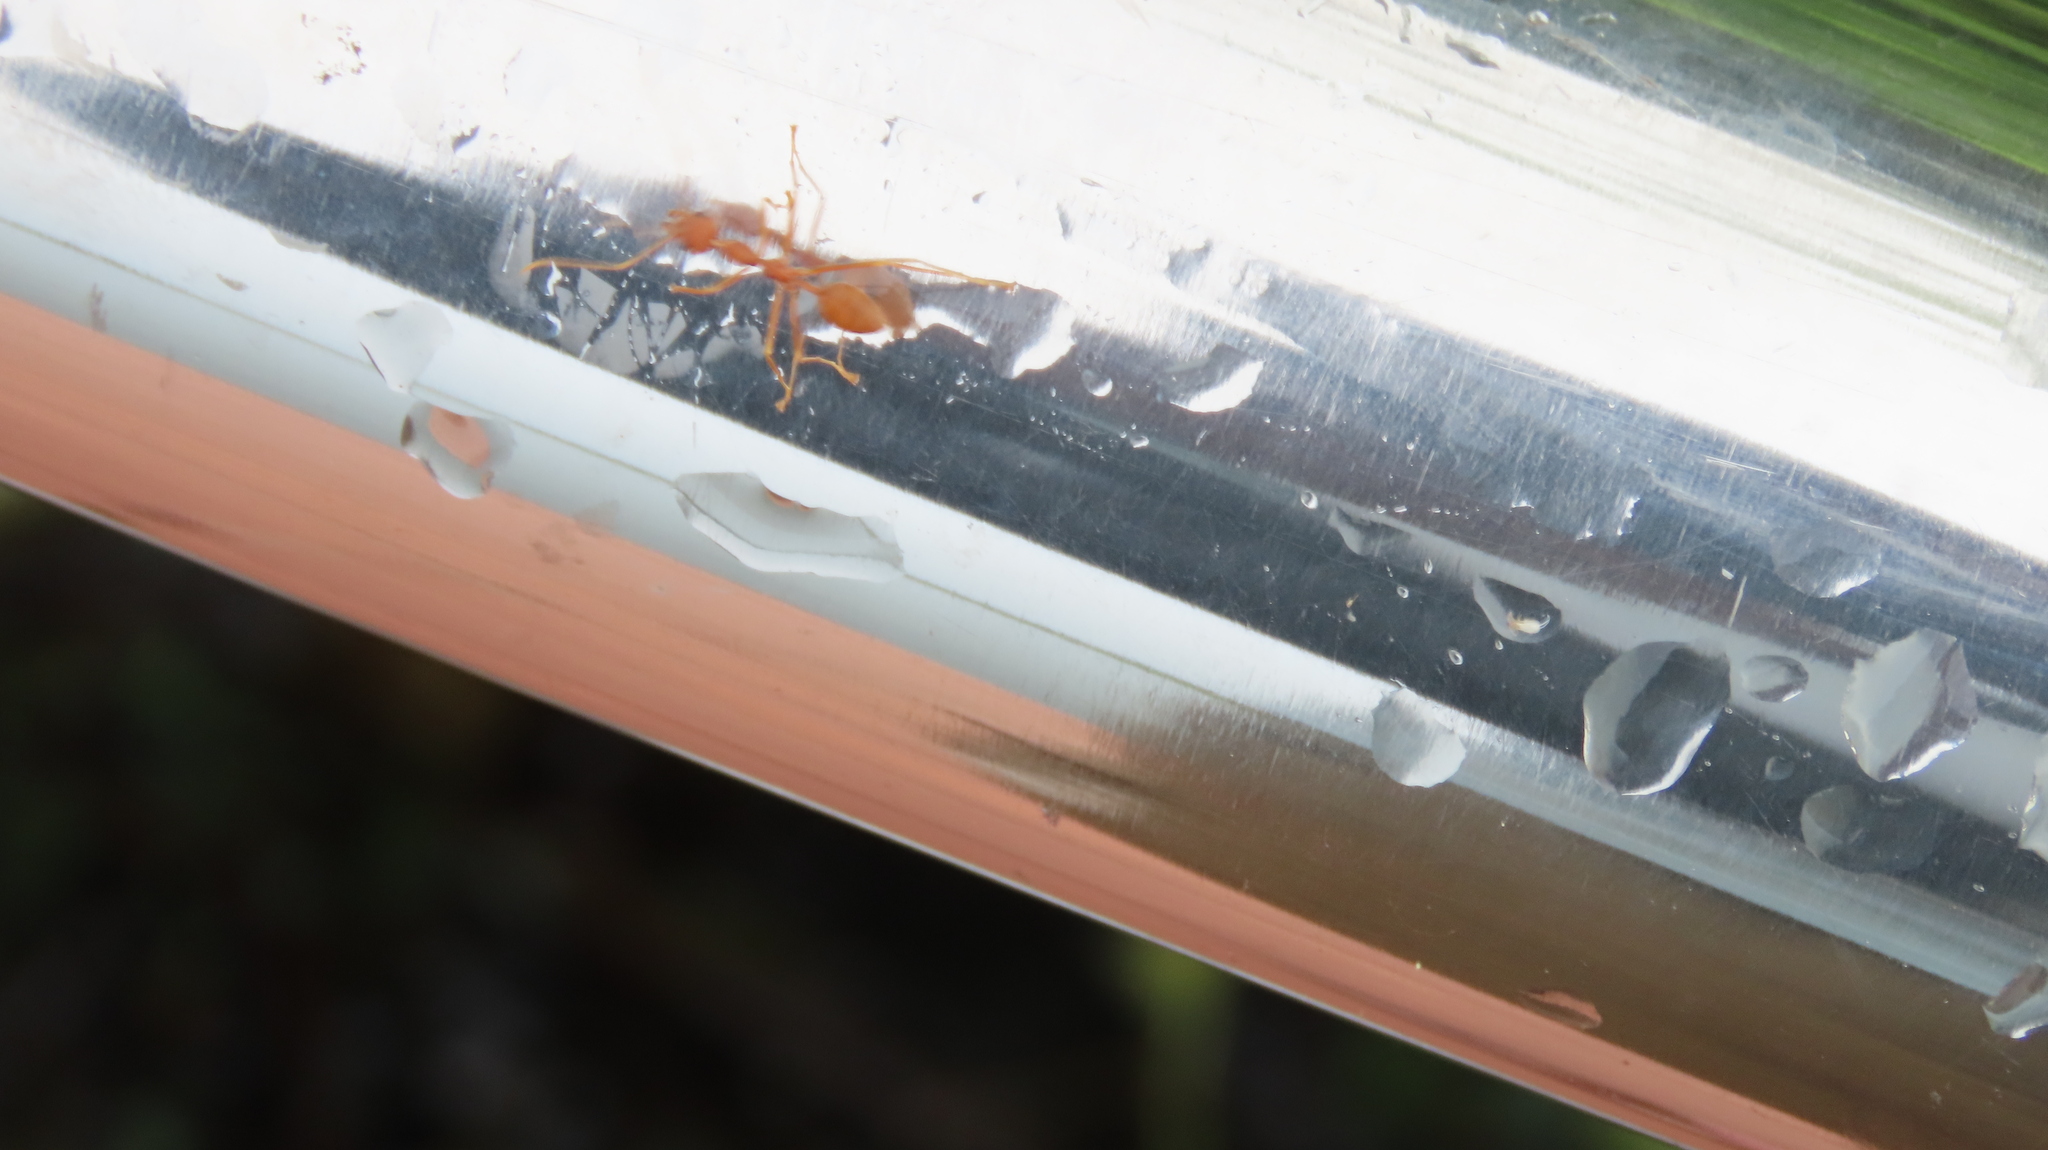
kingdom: Animalia
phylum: Arthropoda
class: Insecta
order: Hymenoptera
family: Formicidae
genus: Oecophylla
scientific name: Oecophylla smaragdina
